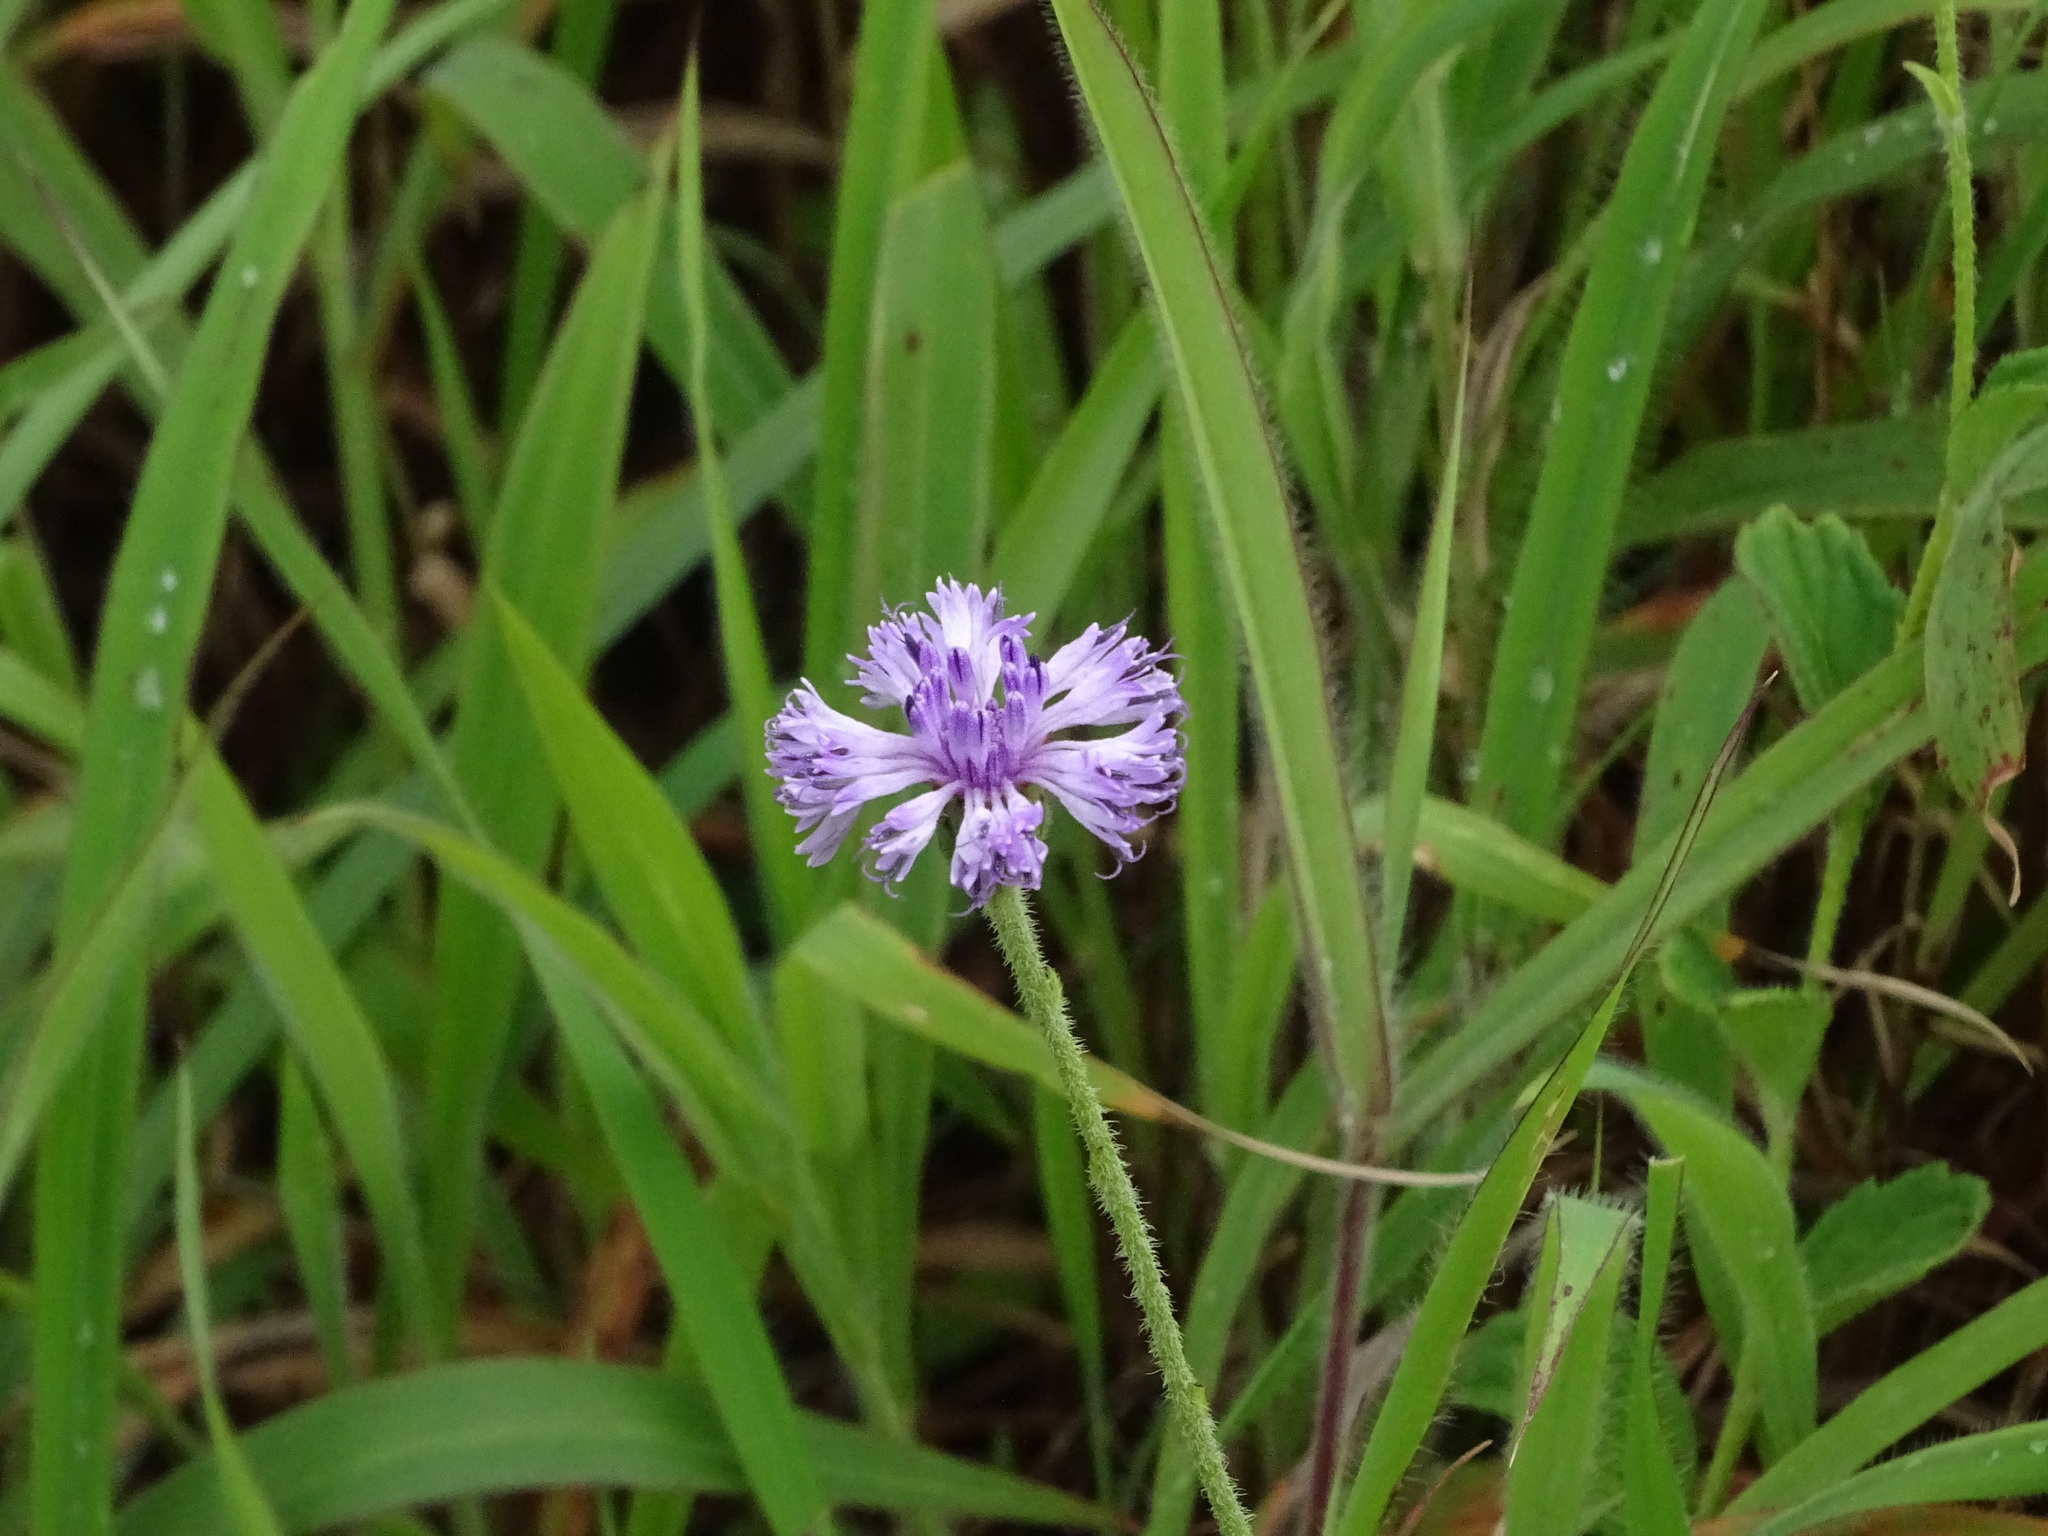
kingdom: Plantae
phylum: Tracheophyta
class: Magnoliopsida
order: Asterales
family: Asteraceae
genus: Adenoon
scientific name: Adenoon indicum
